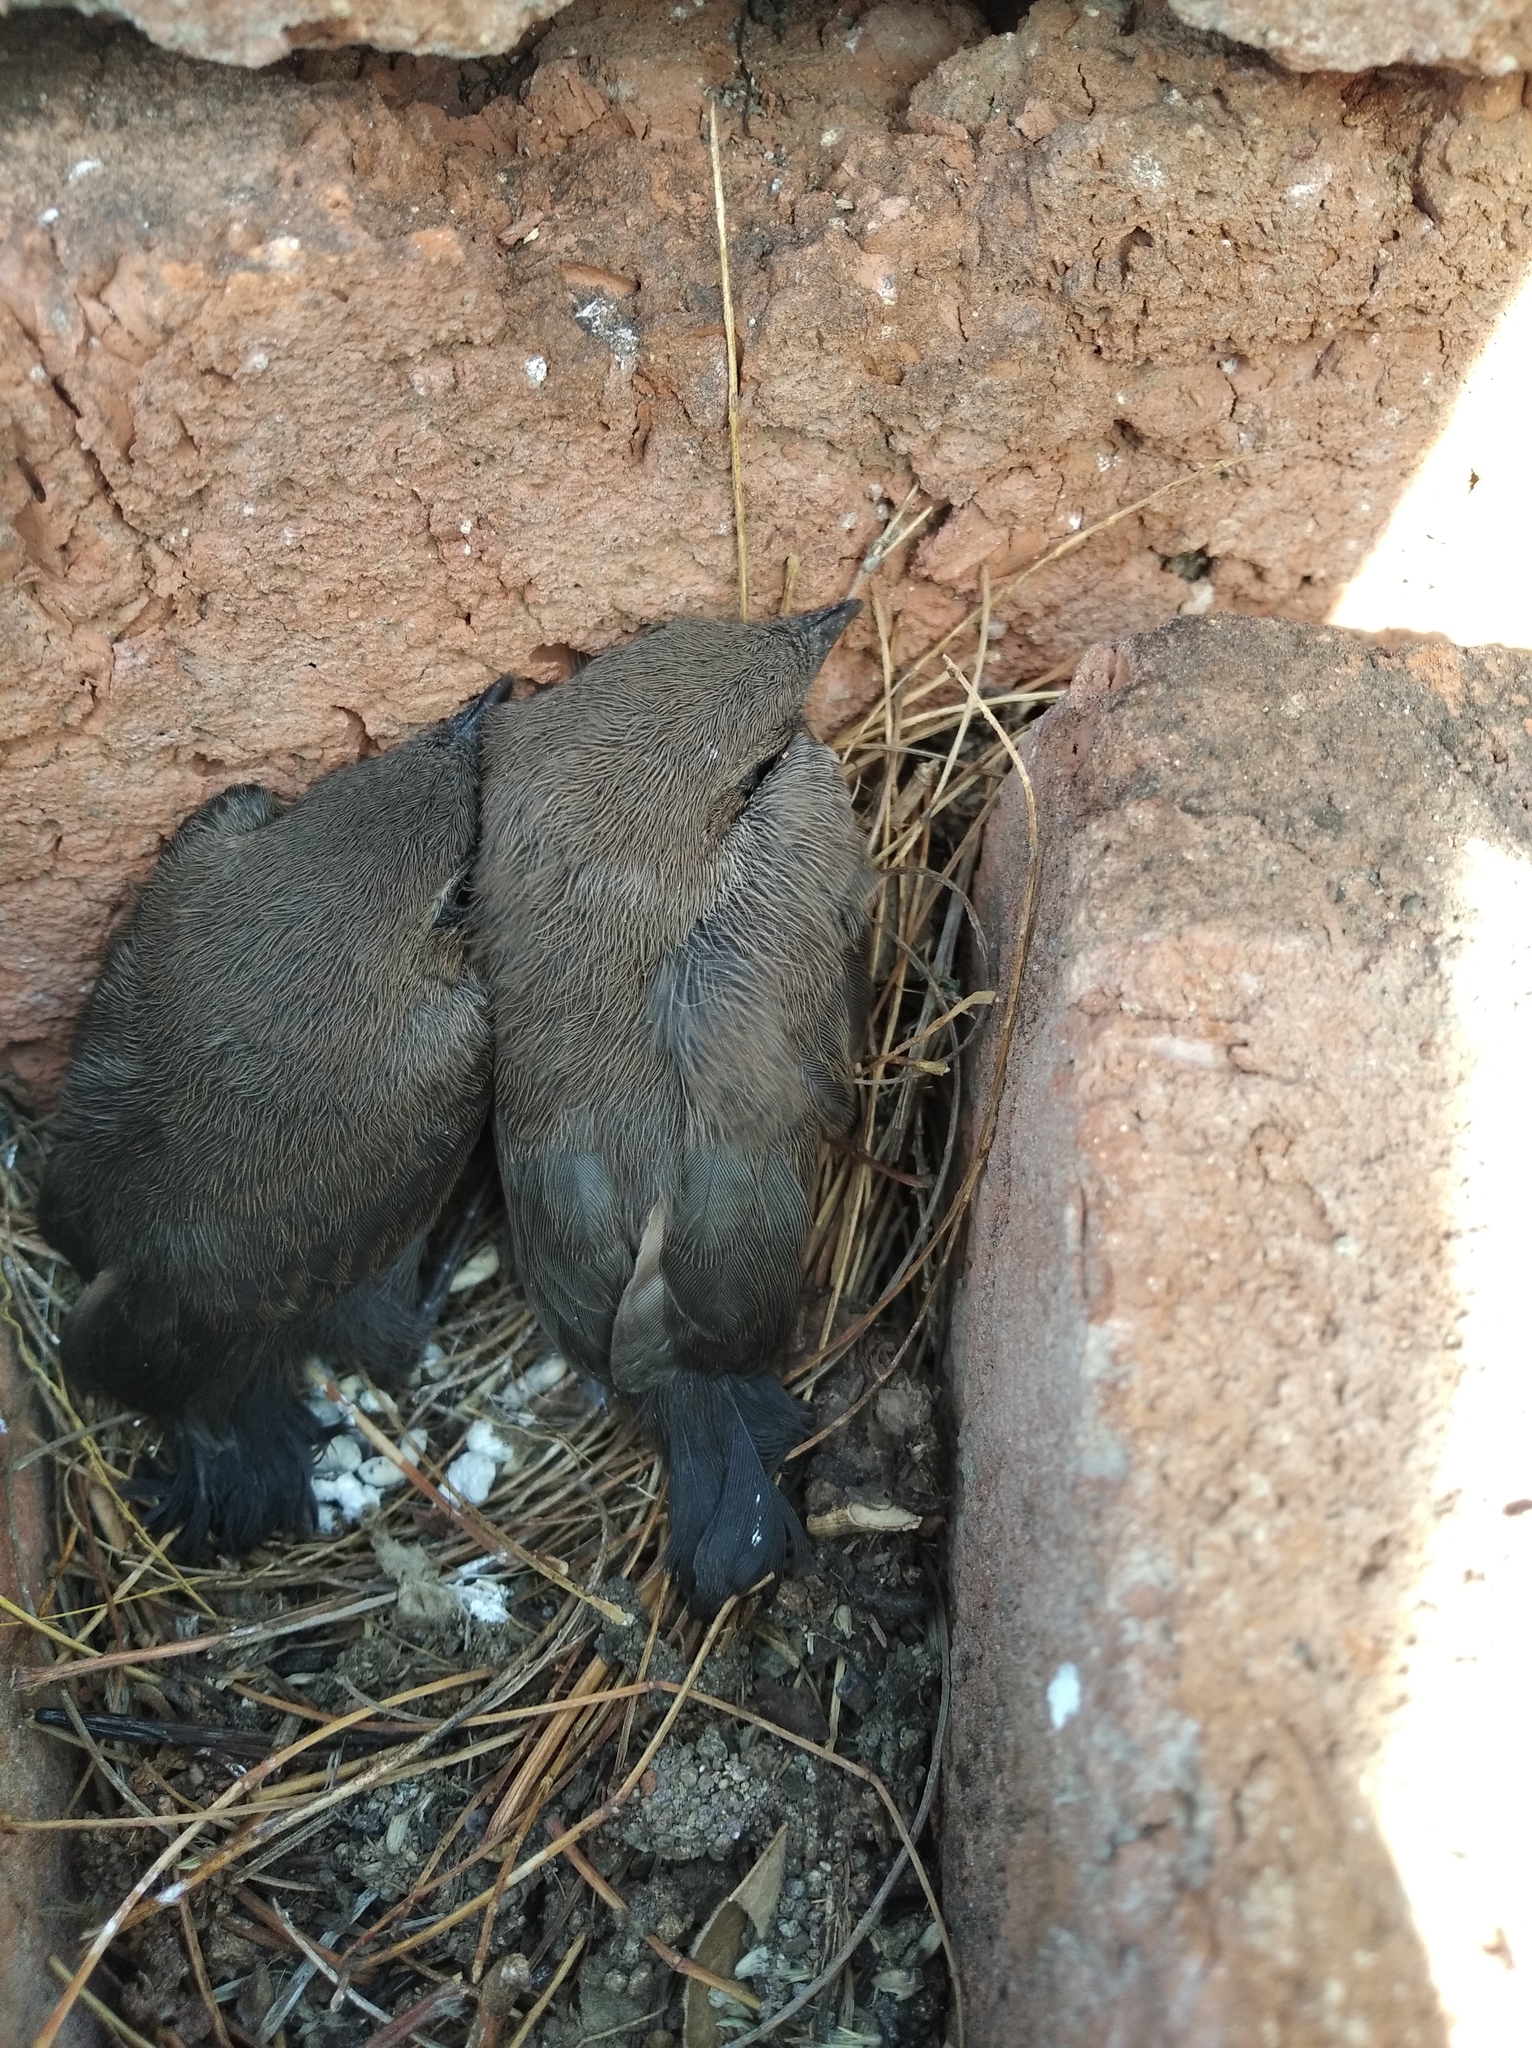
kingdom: Animalia
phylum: Chordata
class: Aves
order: Passeriformes
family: Muscicapidae
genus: Saxicoloides
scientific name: Saxicoloides fulicatus
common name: Indian robin
